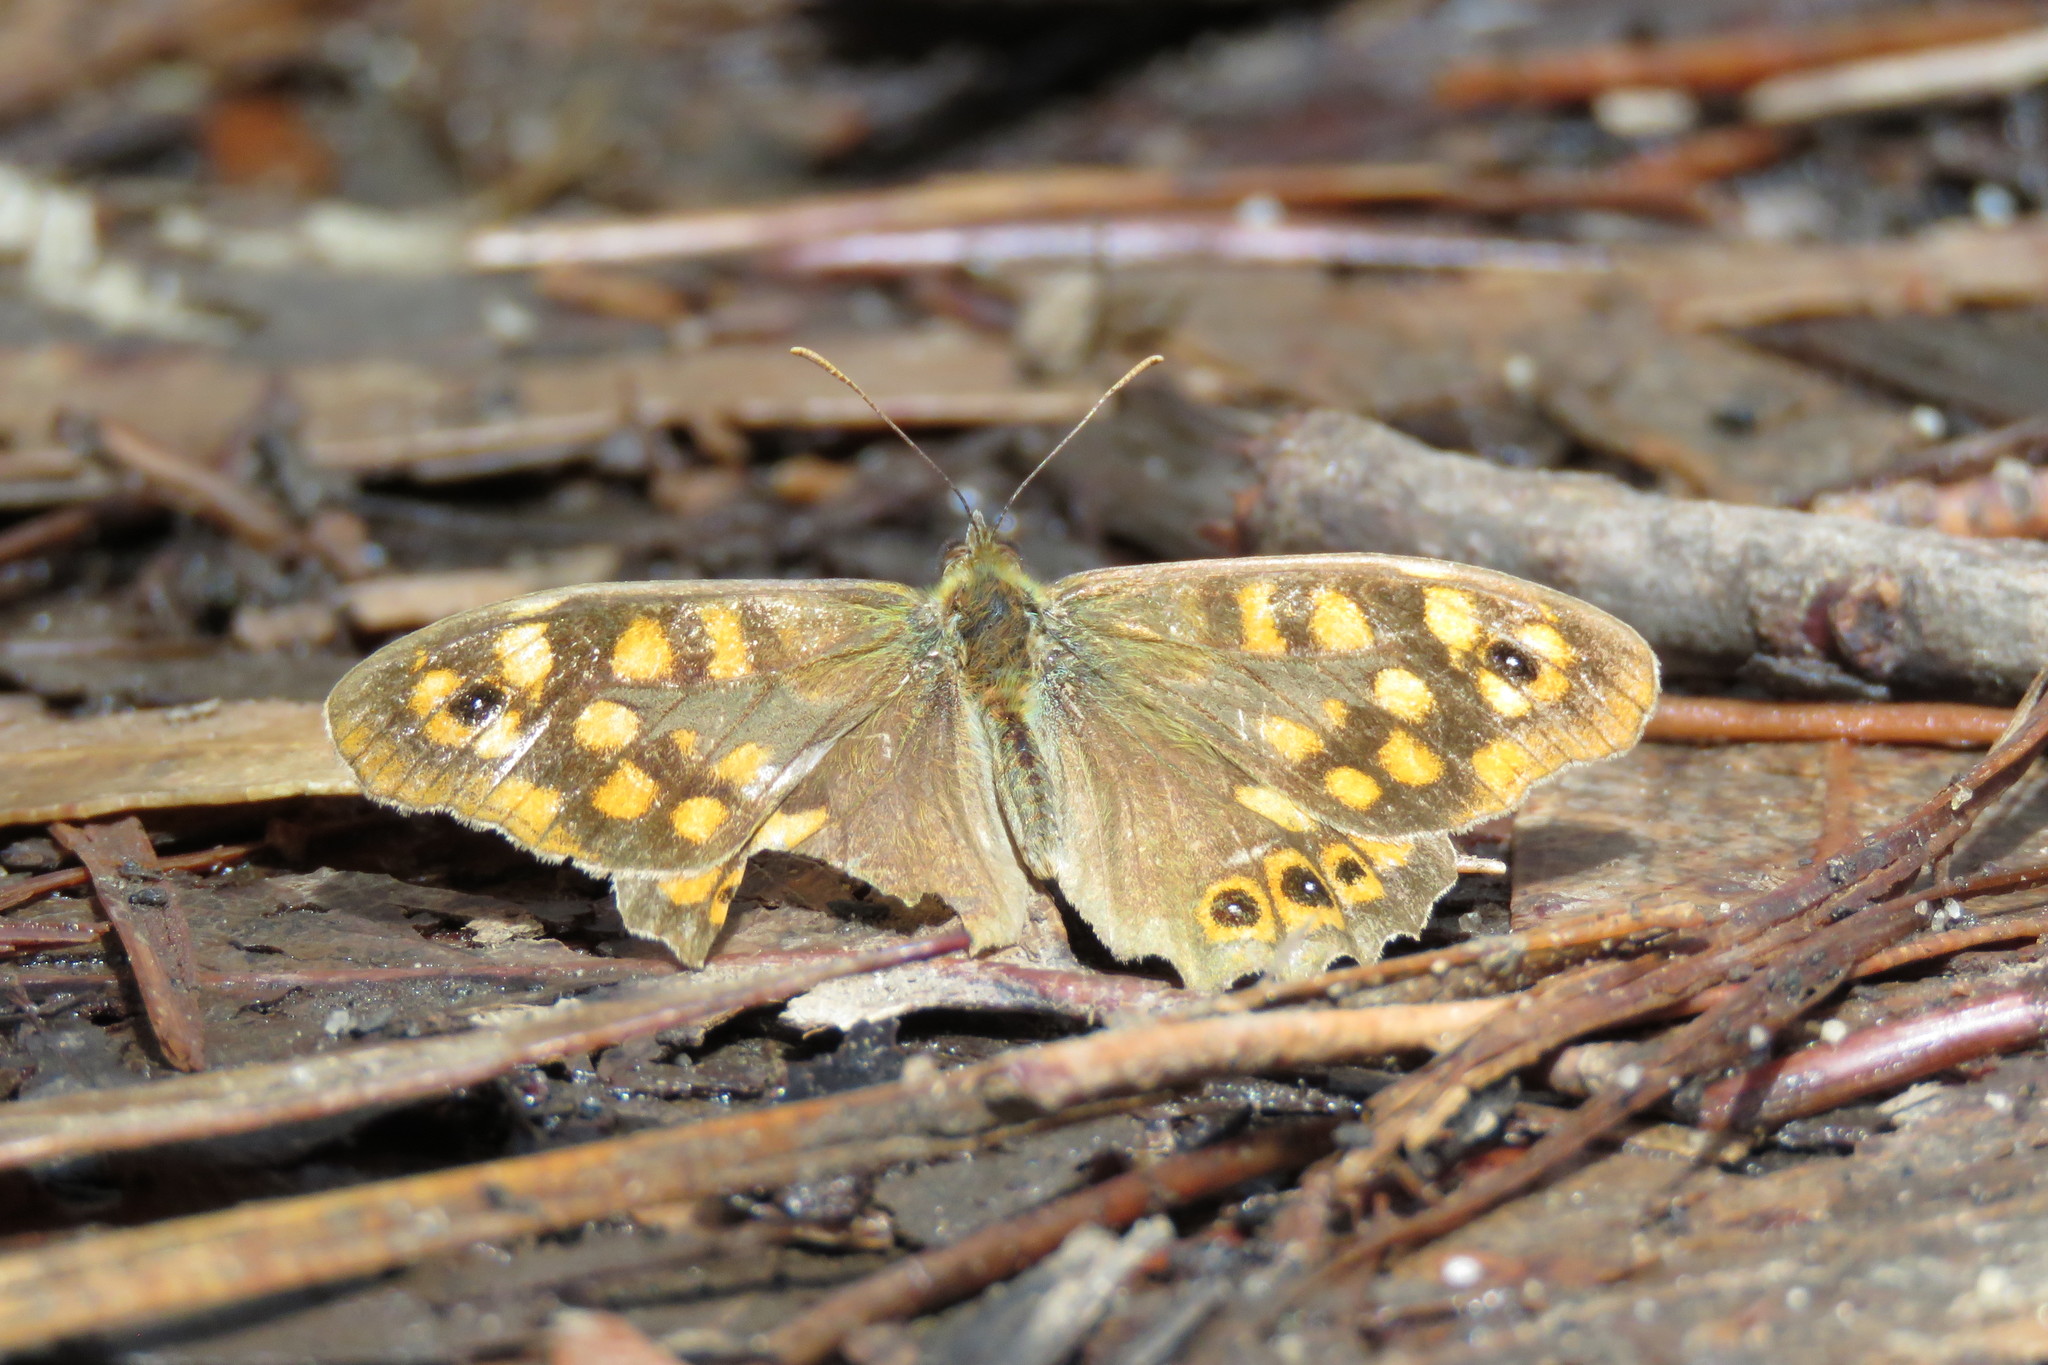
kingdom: Animalia
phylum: Arthropoda
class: Insecta
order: Lepidoptera
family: Nymphalidae
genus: Pararge
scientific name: Pararge aegeria
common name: Speckled wood
